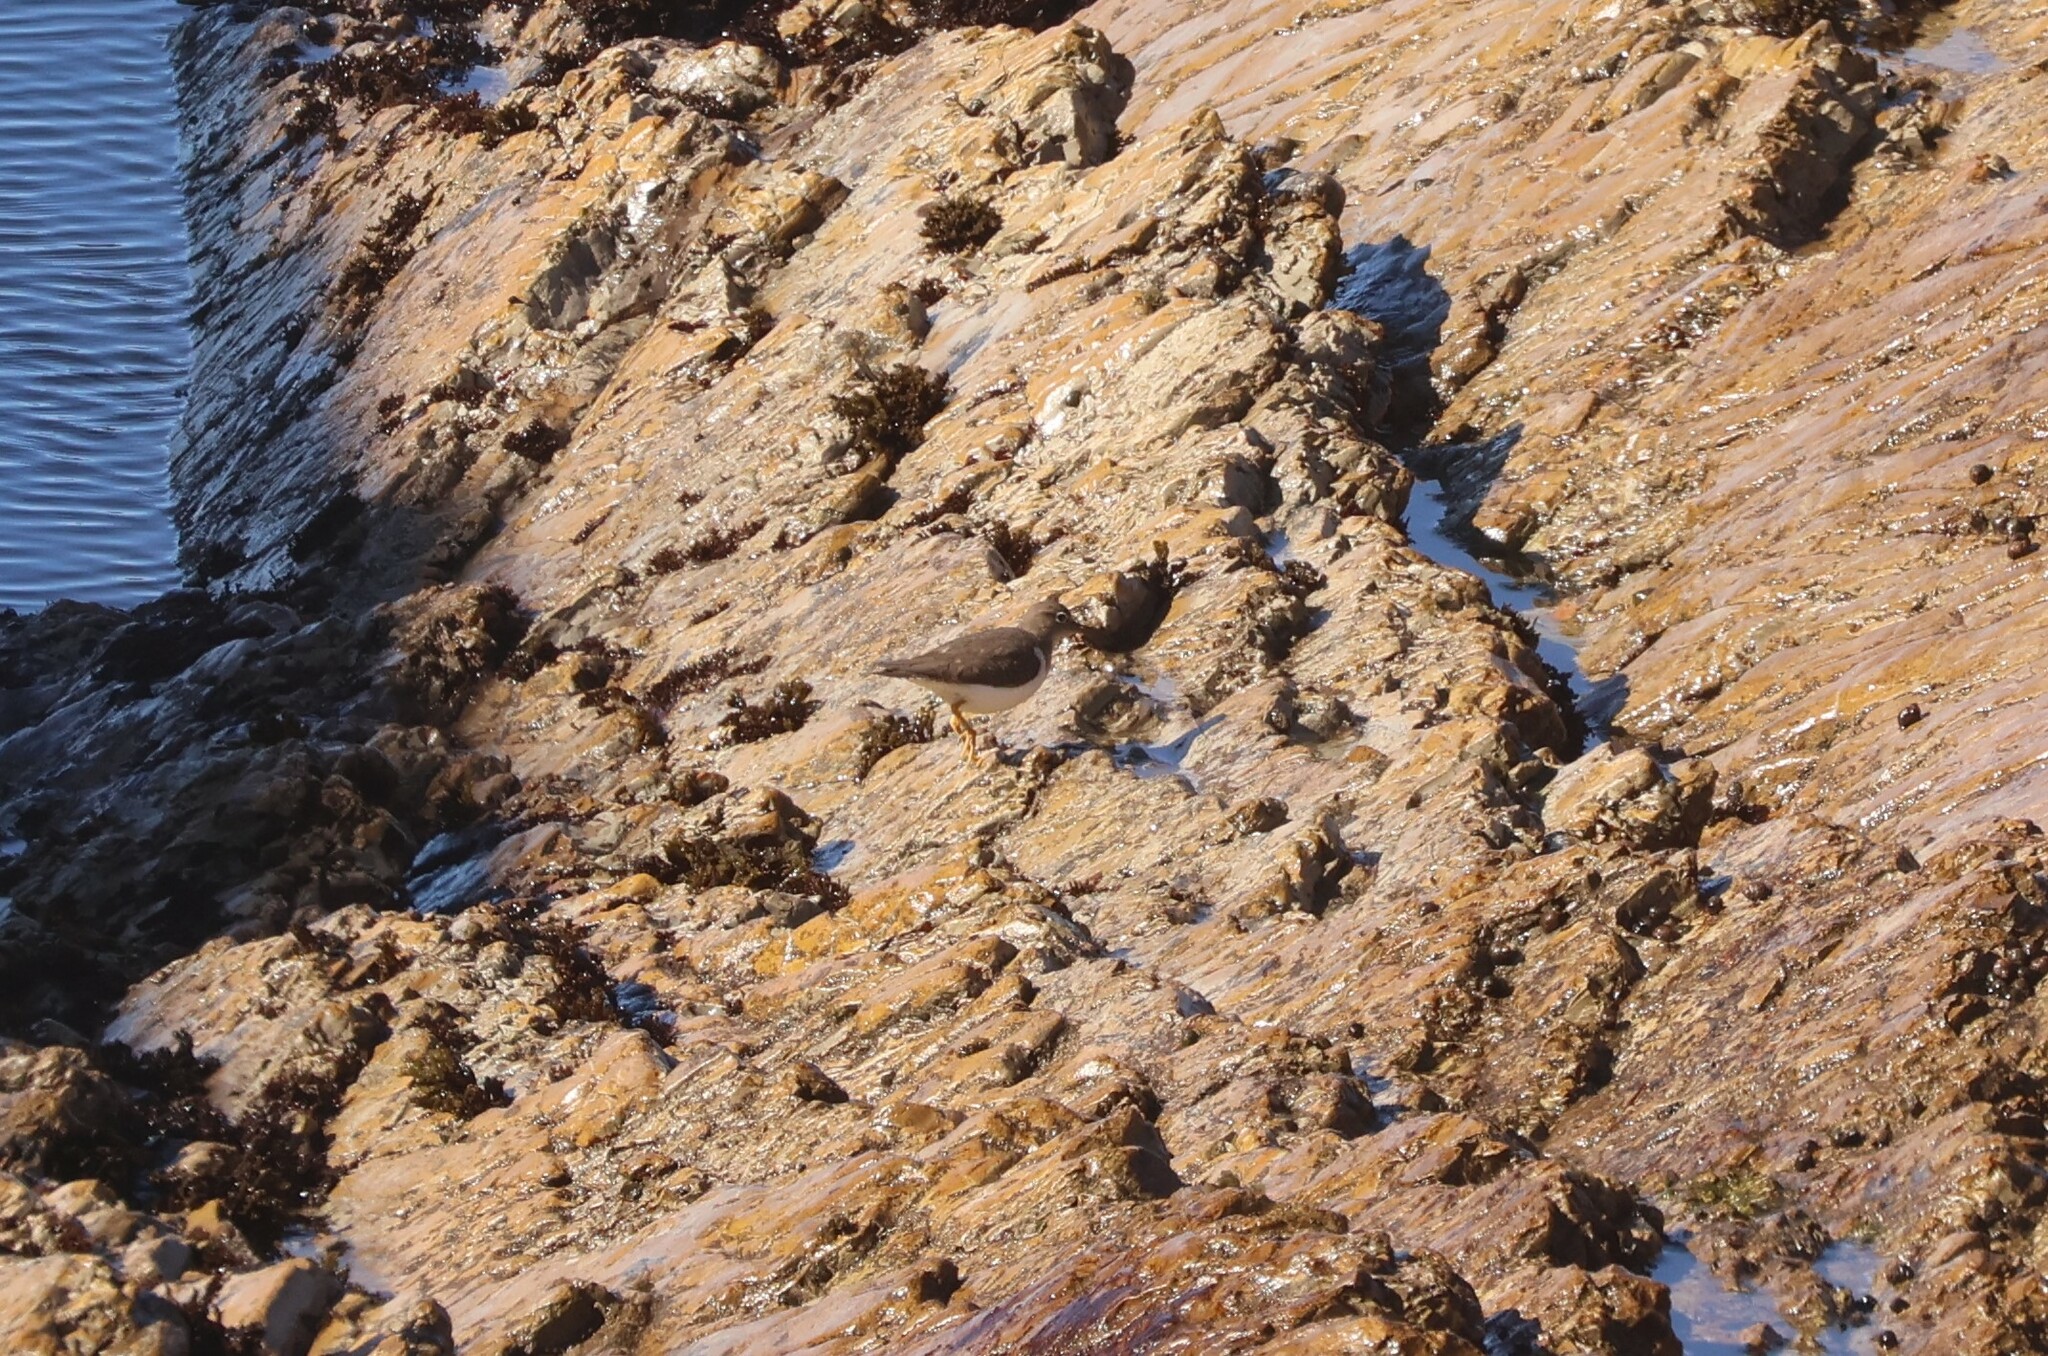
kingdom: Animalia
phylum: Chordata
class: Aves
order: Charadriiformes
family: Scolopacidae
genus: Actitis
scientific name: Actitis macularius
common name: Spotted sandpiper
